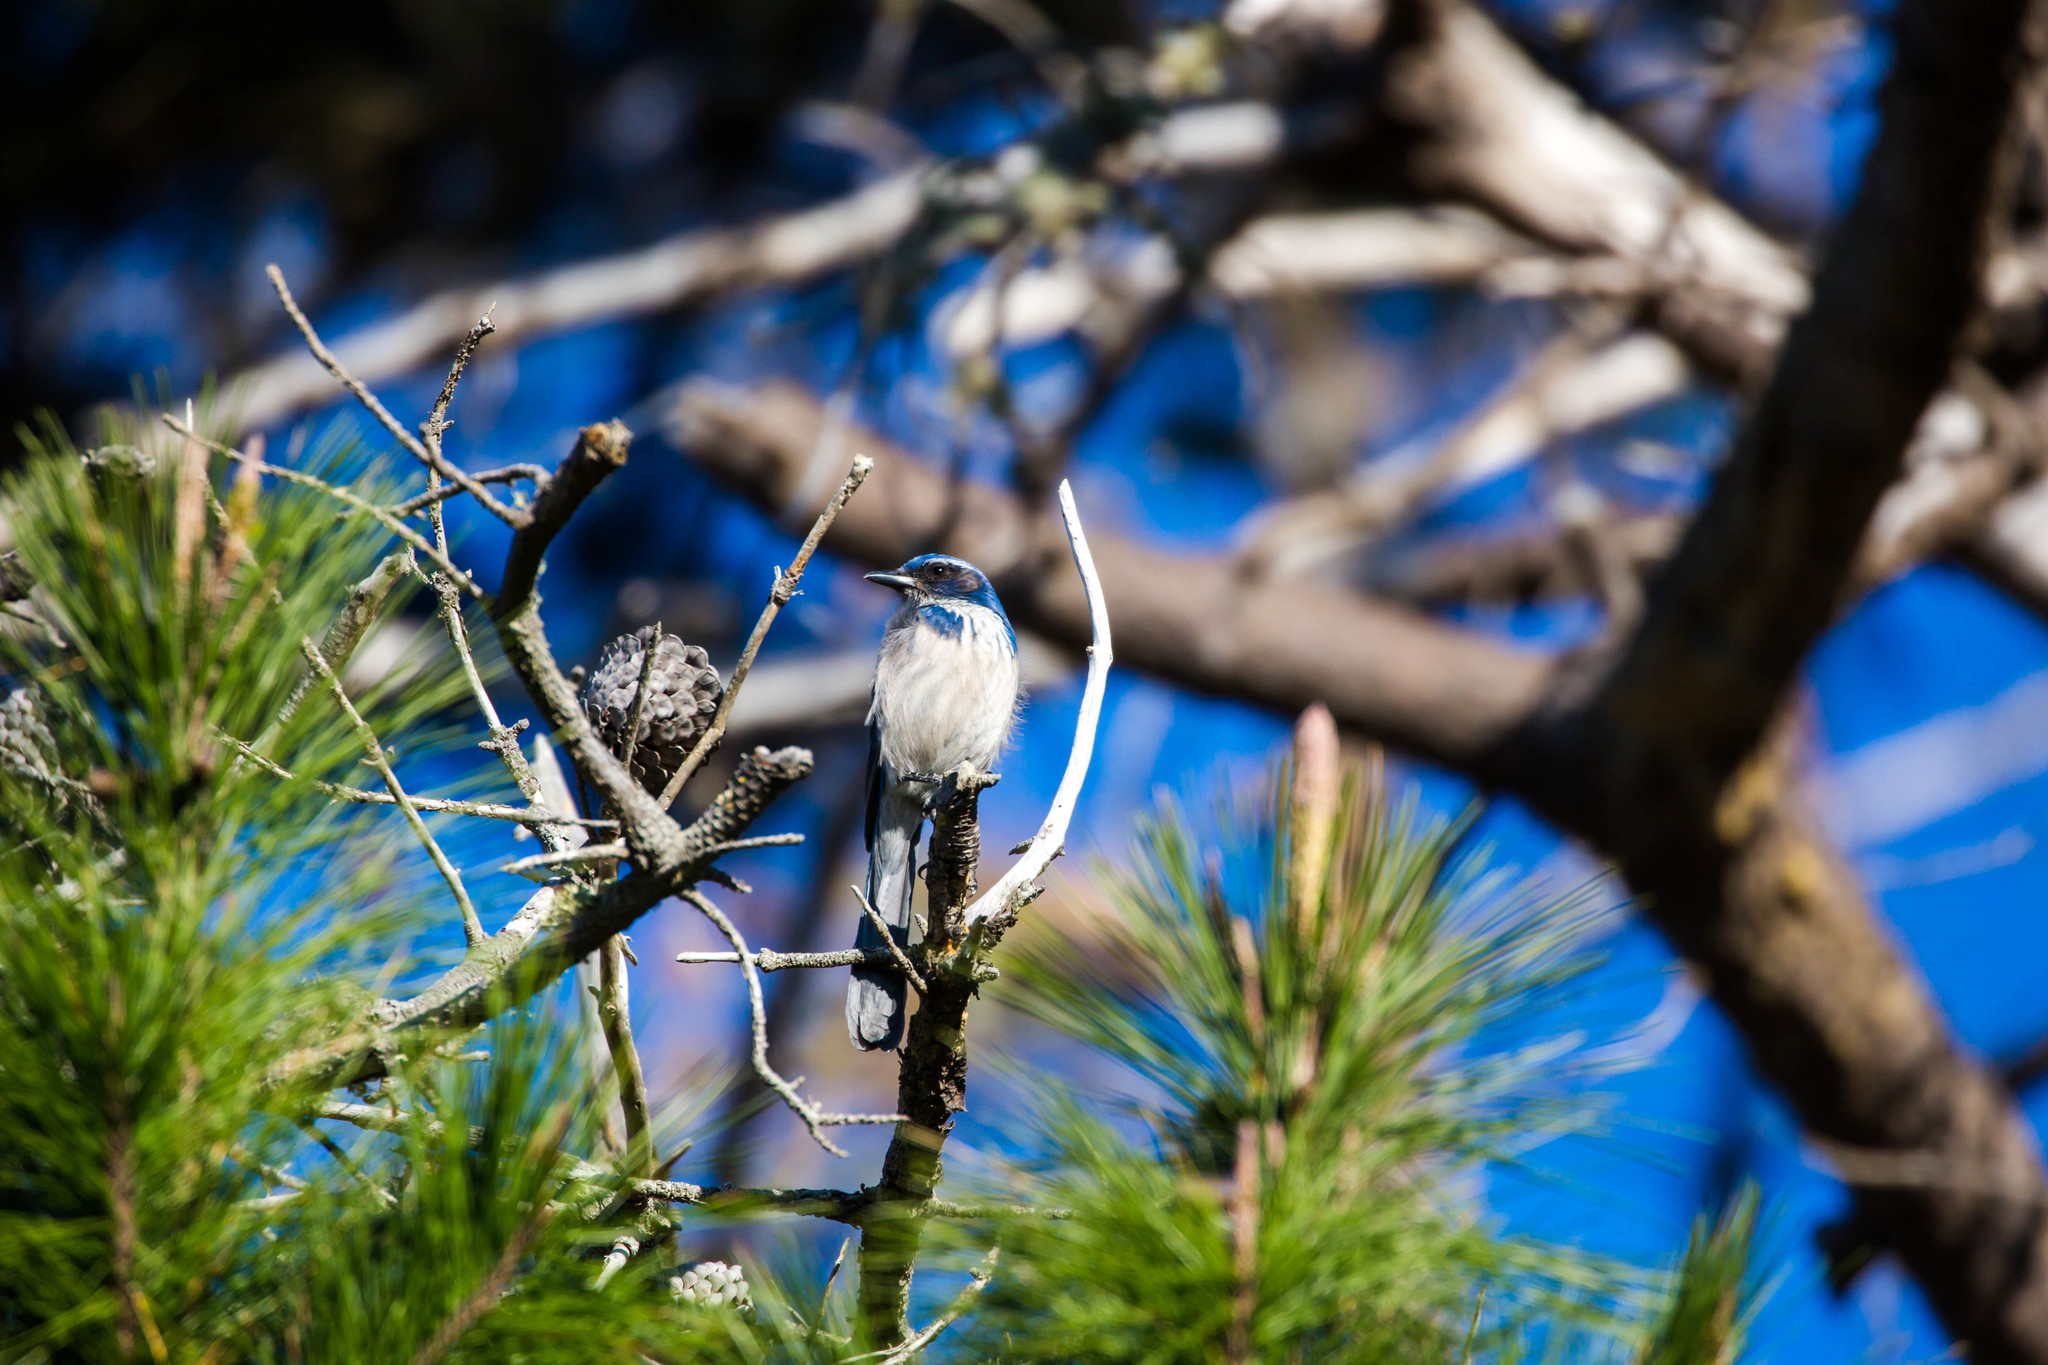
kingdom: Animalia
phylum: Chordata
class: Aves
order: Passeriformes
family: Corvidae
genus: Aphelocoma
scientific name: Aphelocoma californica
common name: California scrub-jay
